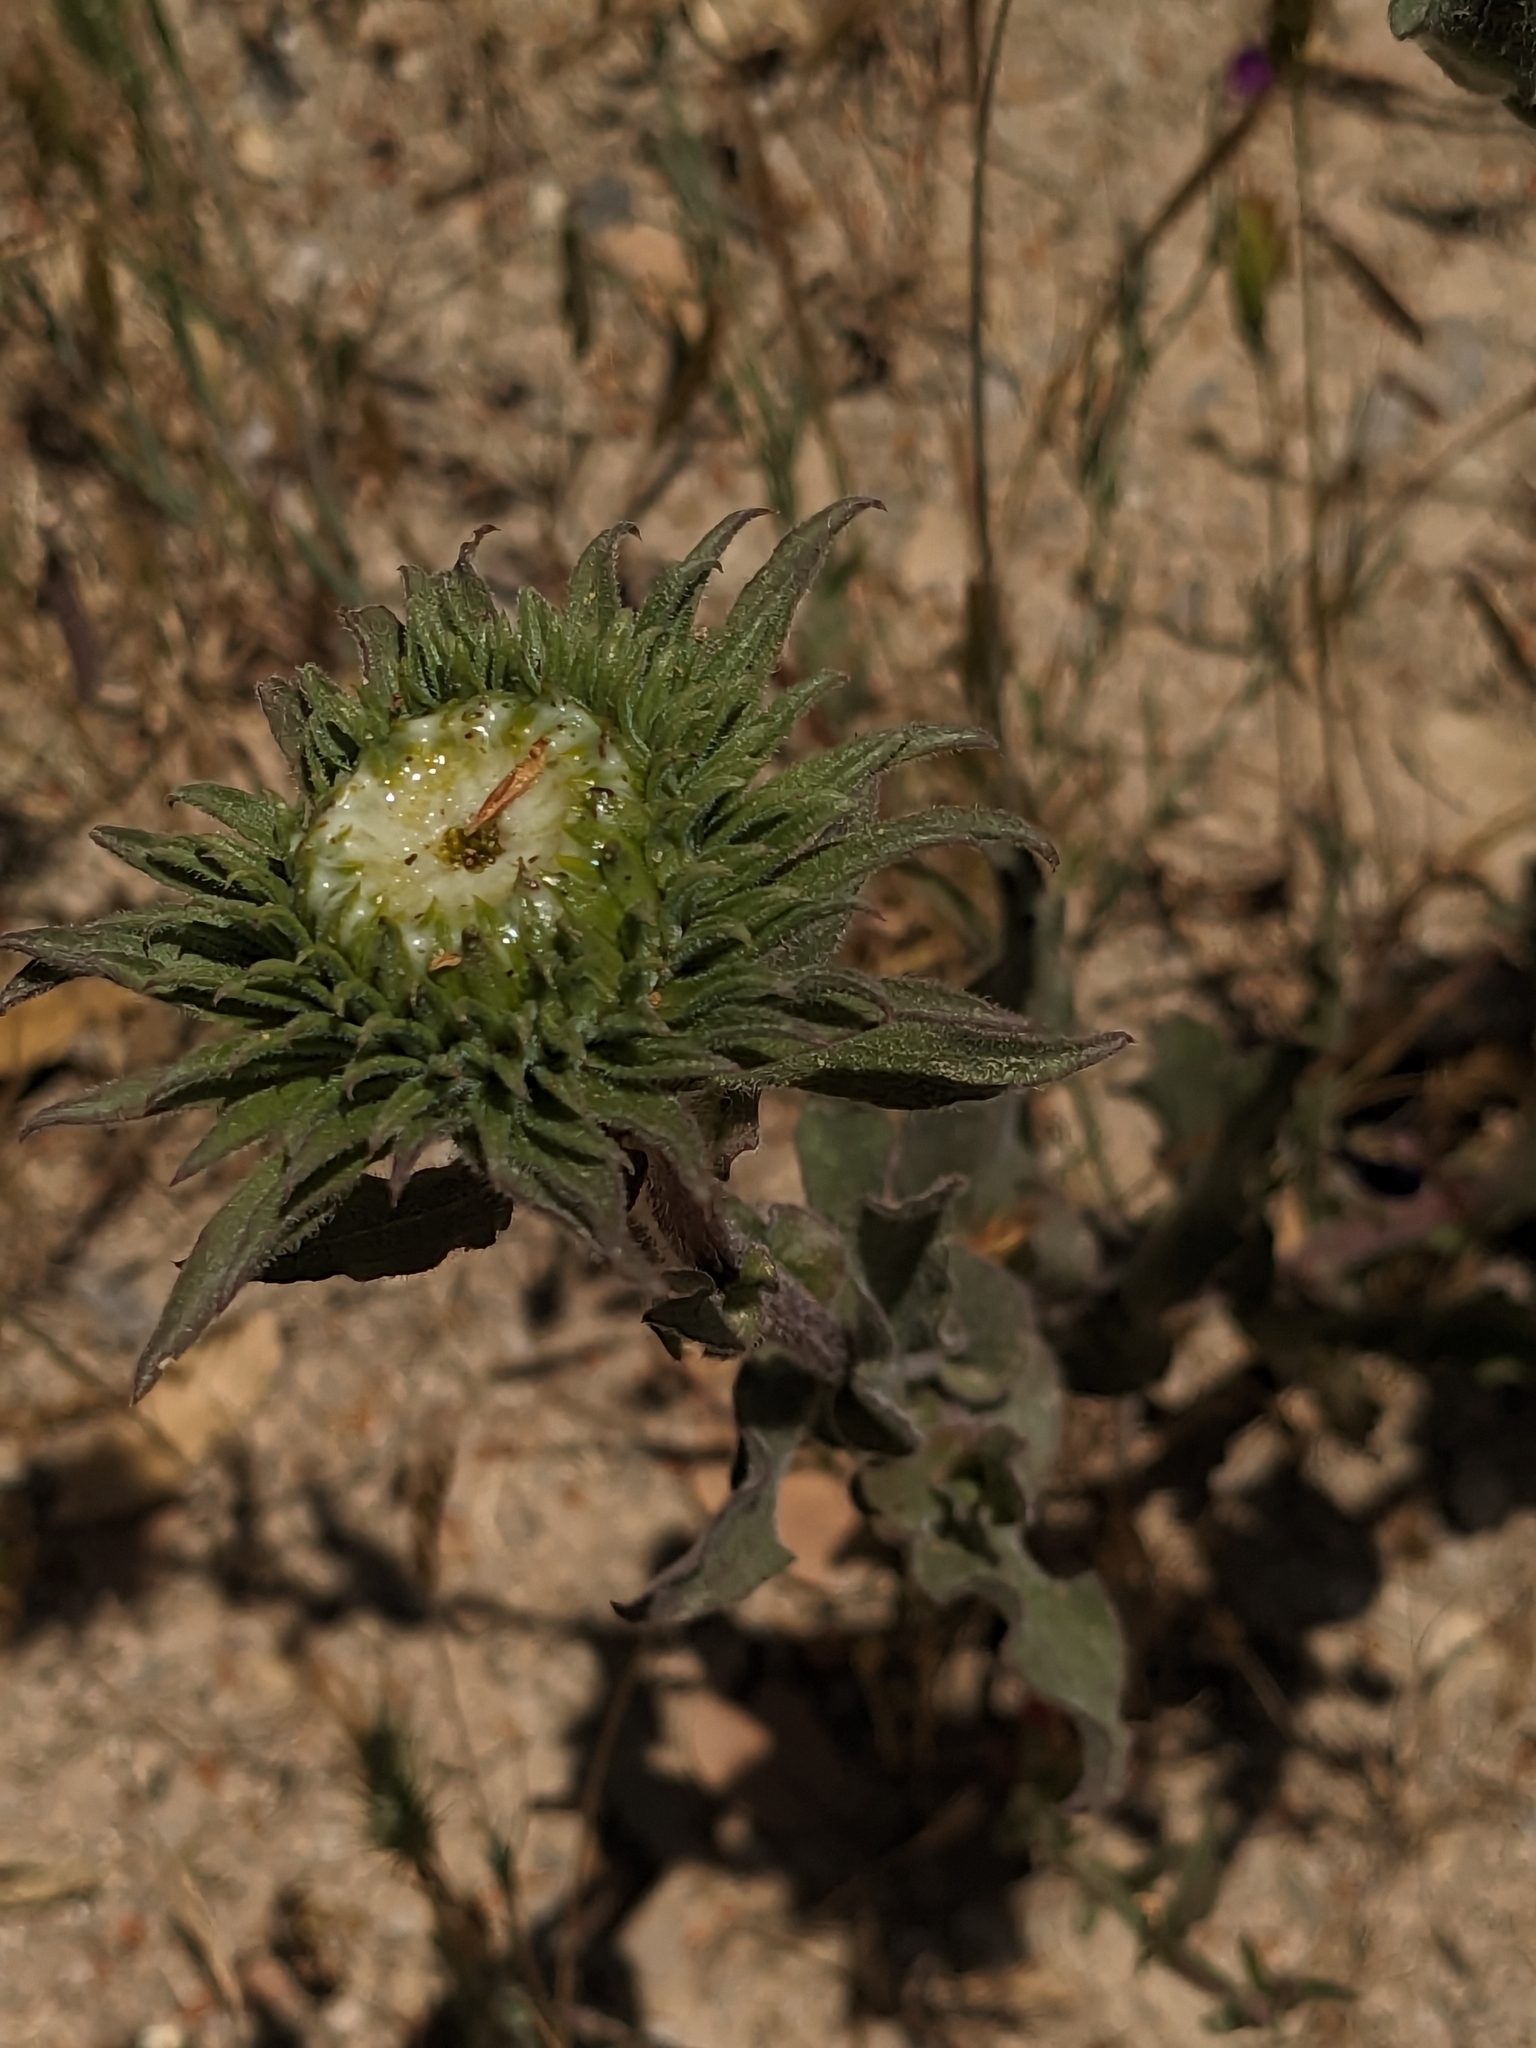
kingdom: Plantae
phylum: Tracheophyta
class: Magnoliopsida
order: Asterales
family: Asteraceae
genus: Grindelia
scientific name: Grindelia hirsutula
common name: Hairy gumweed
